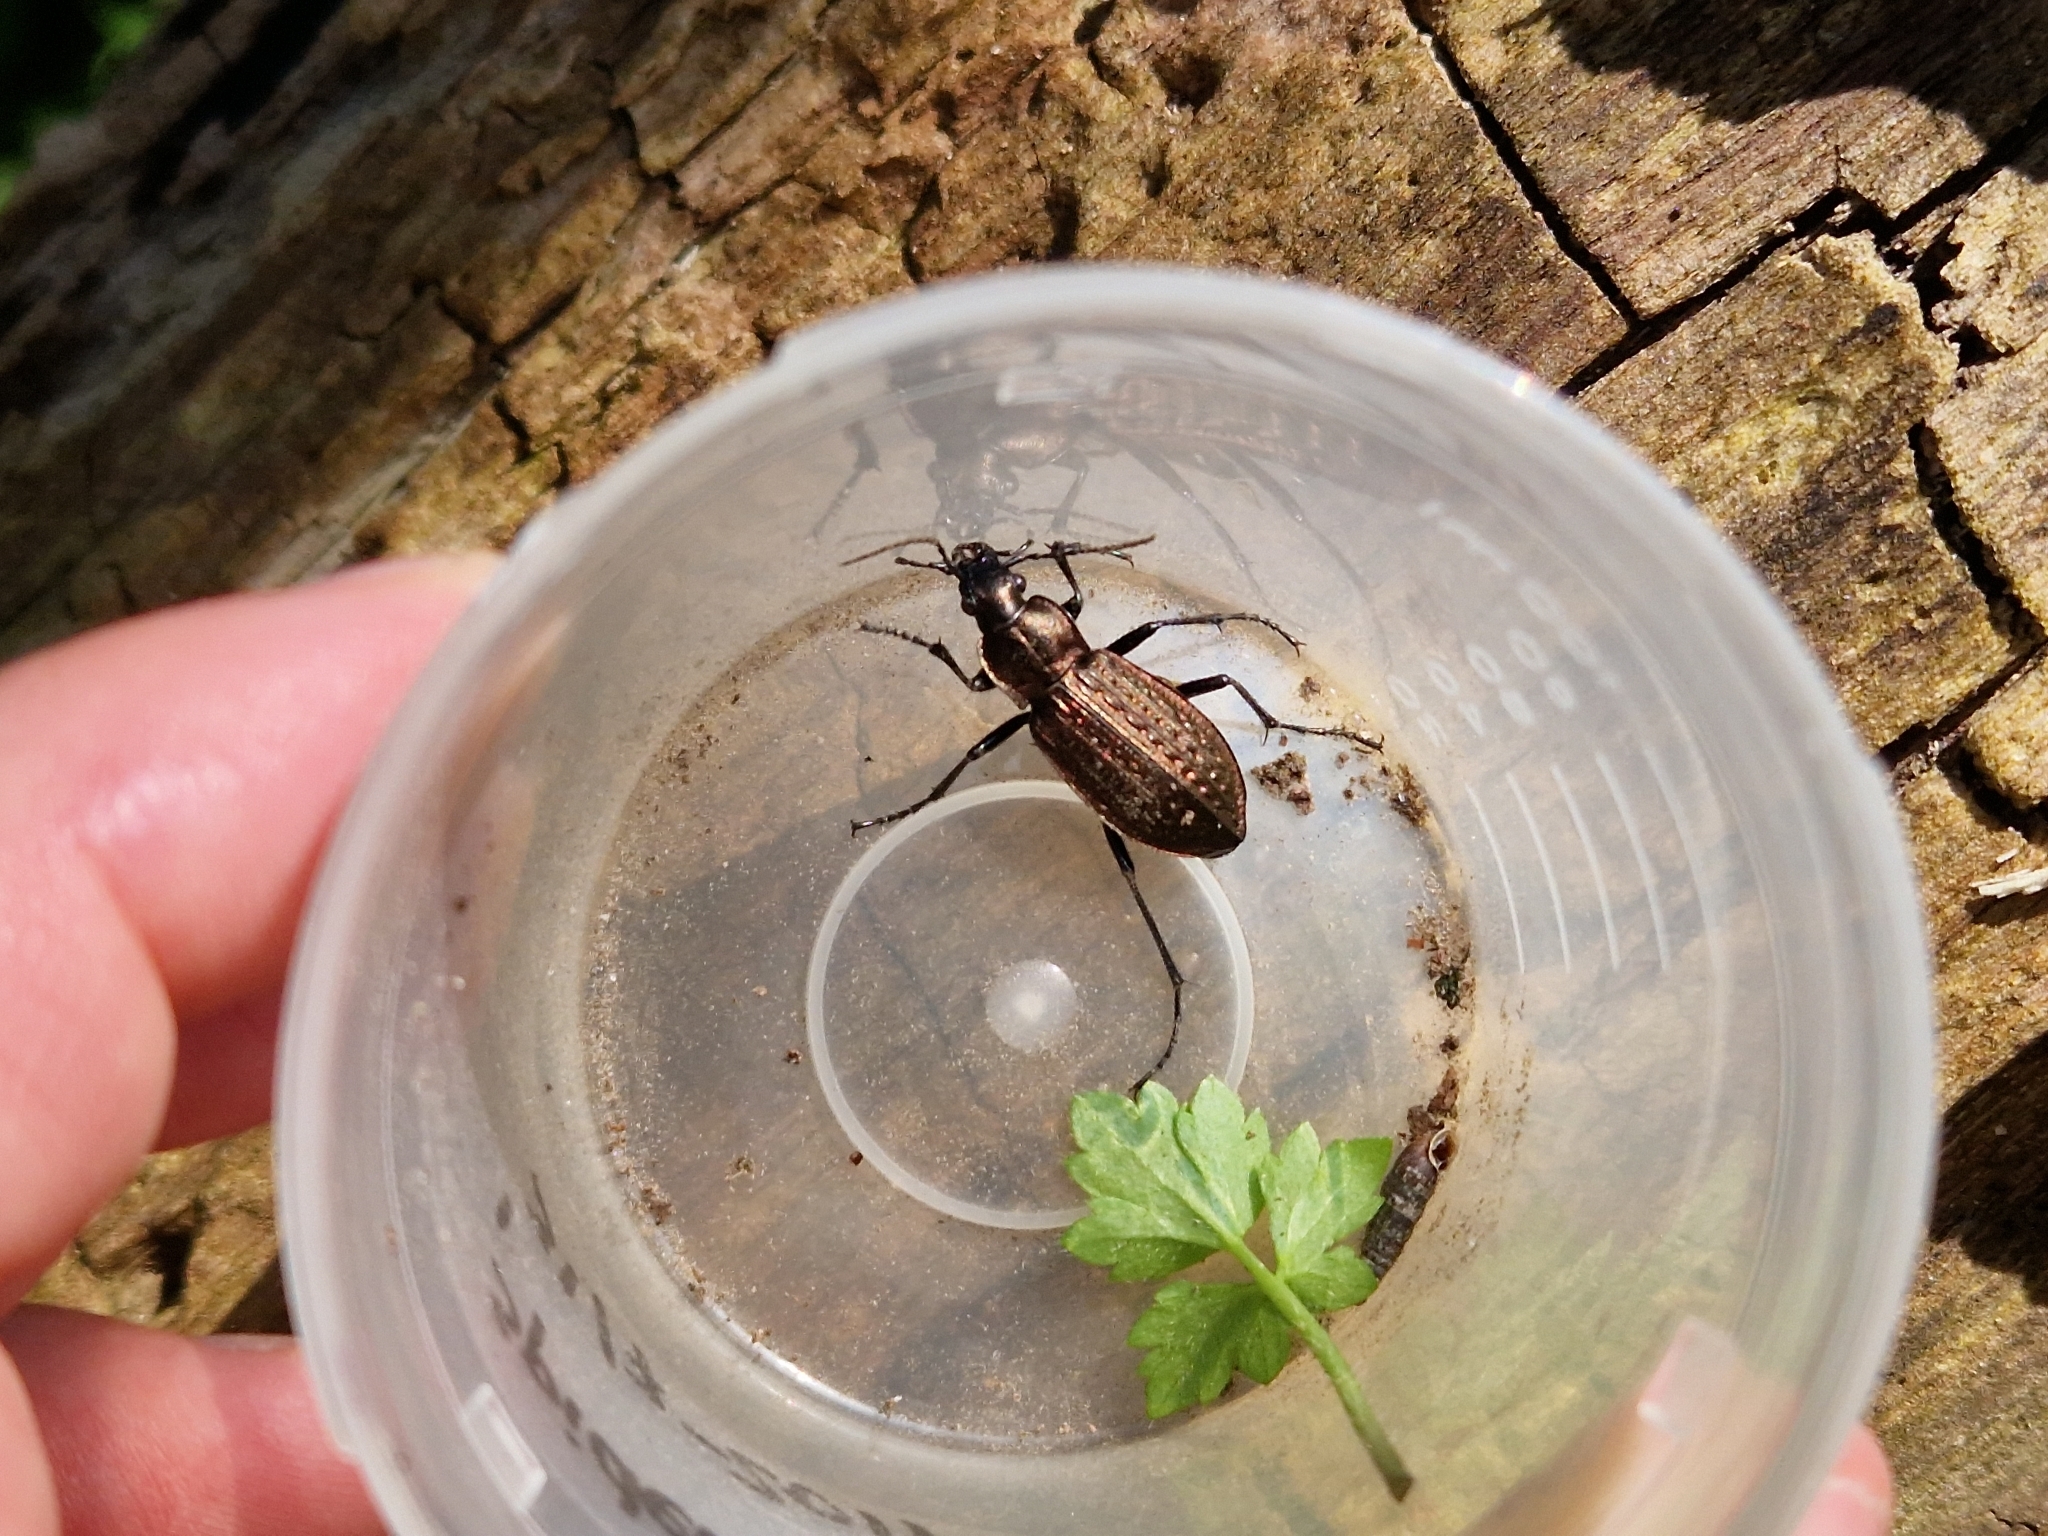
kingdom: Animalia
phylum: Arthropoda
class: Insecta
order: Coleoptera
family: Carabidae
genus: Carabus
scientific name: Carabus granulatus
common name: Granulate ground beetle
